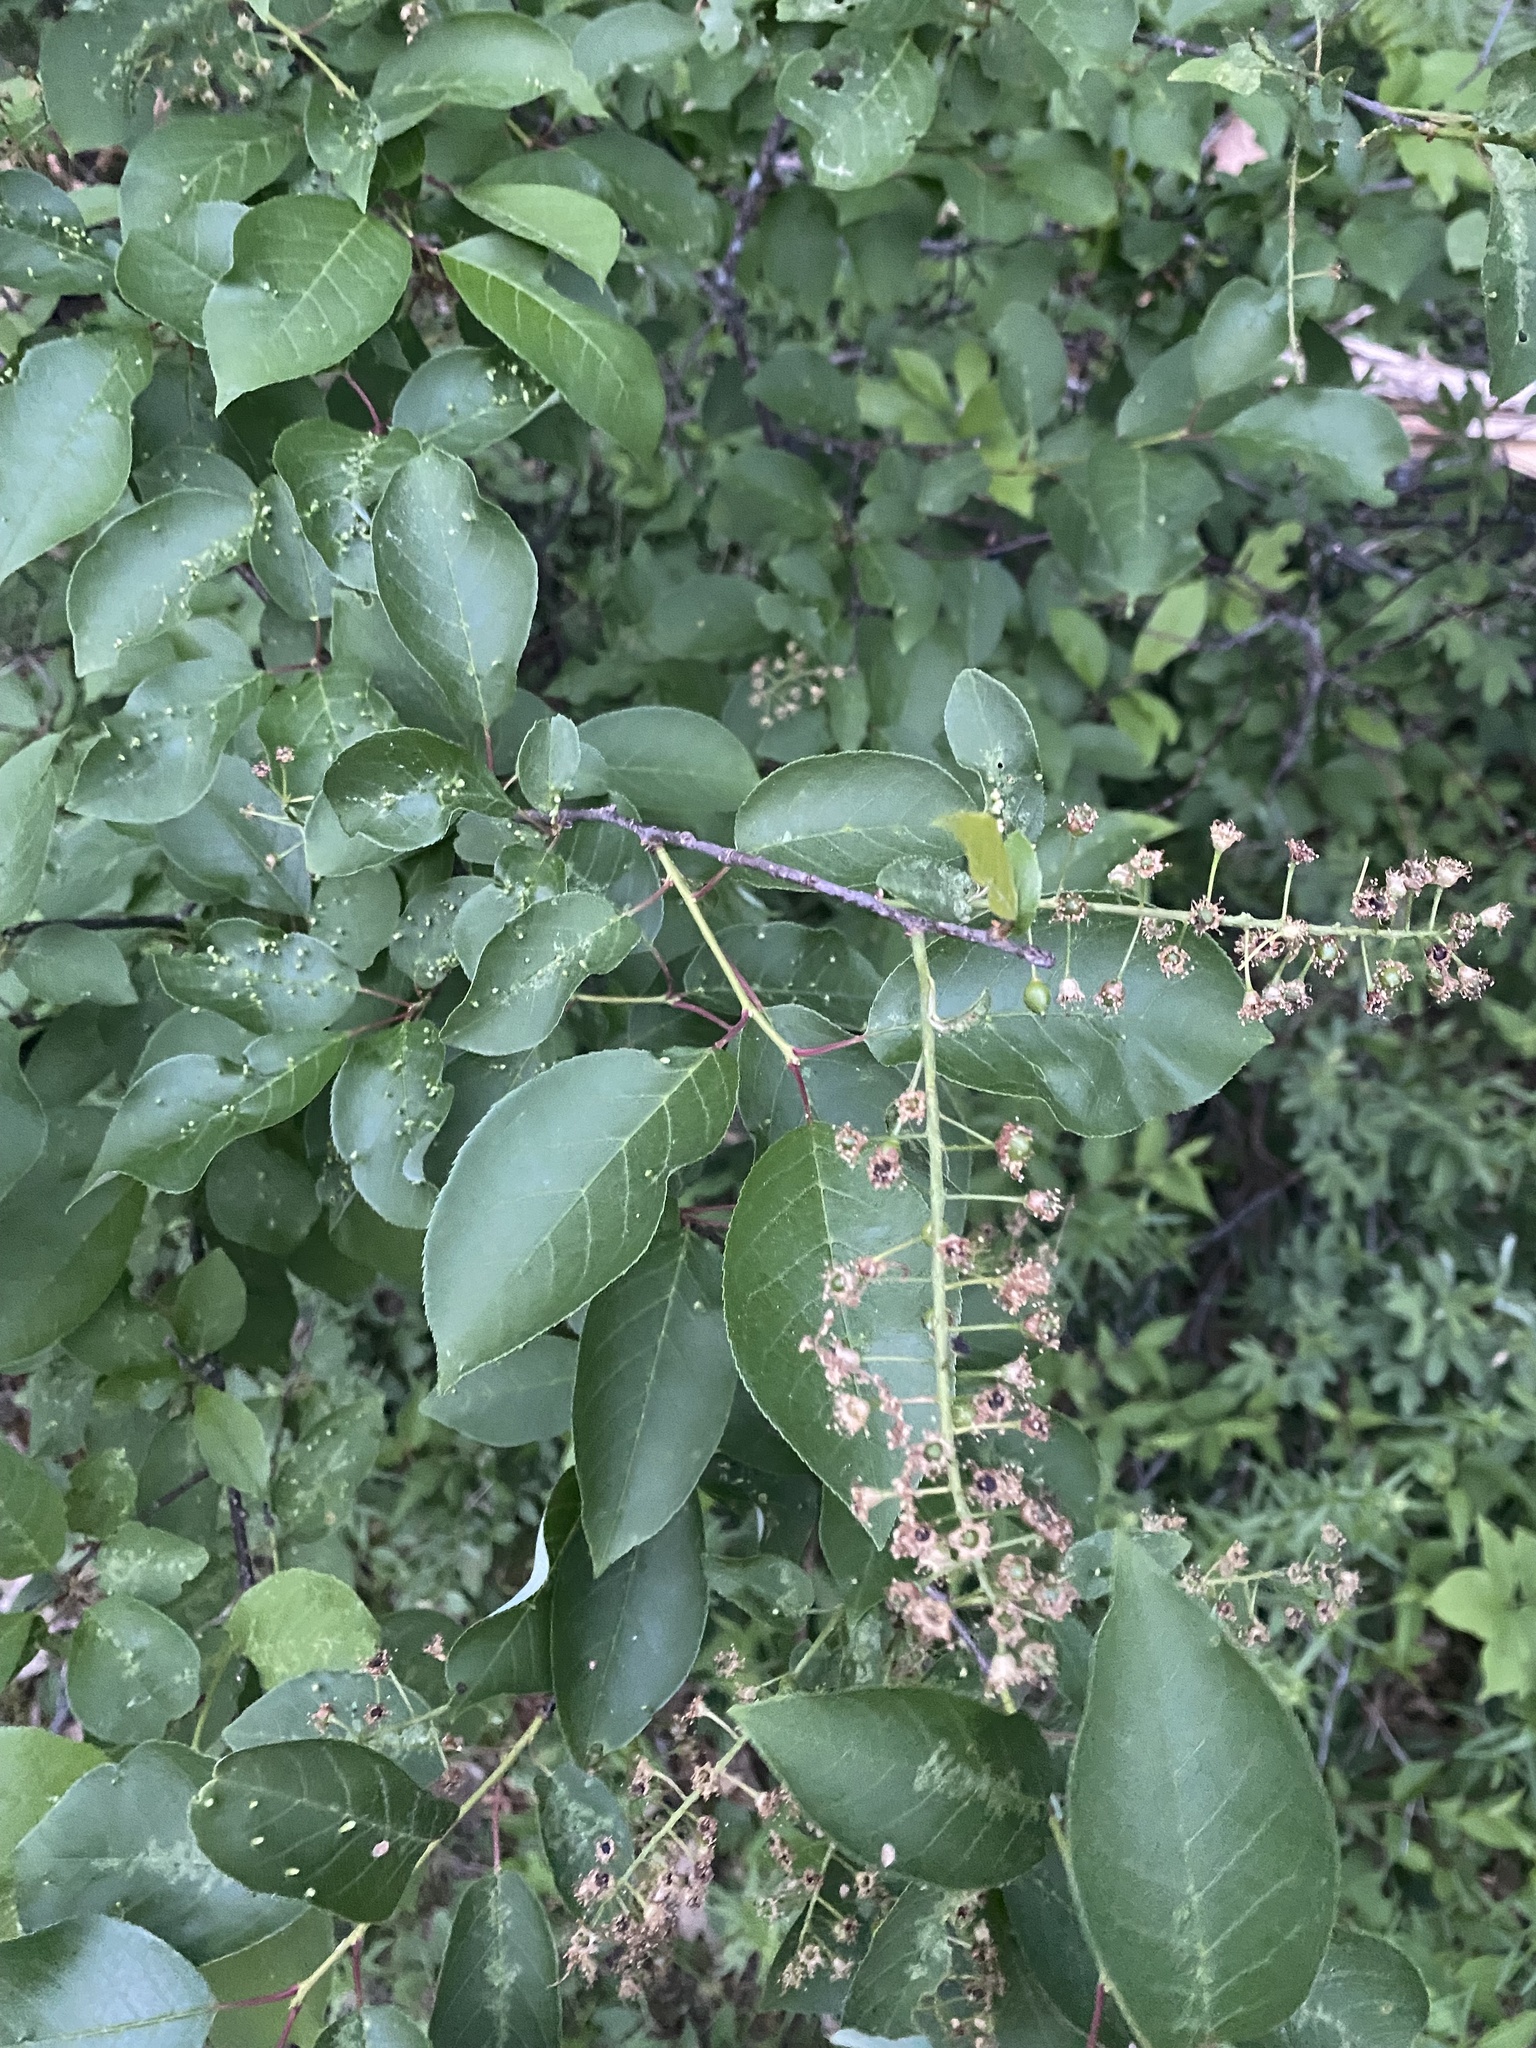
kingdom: Plantae
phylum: Tracheophyta
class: Magnoliopsida
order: Rosales
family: Rosaceae
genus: Prunus
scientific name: Prunus virginiana
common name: Chokecherry
